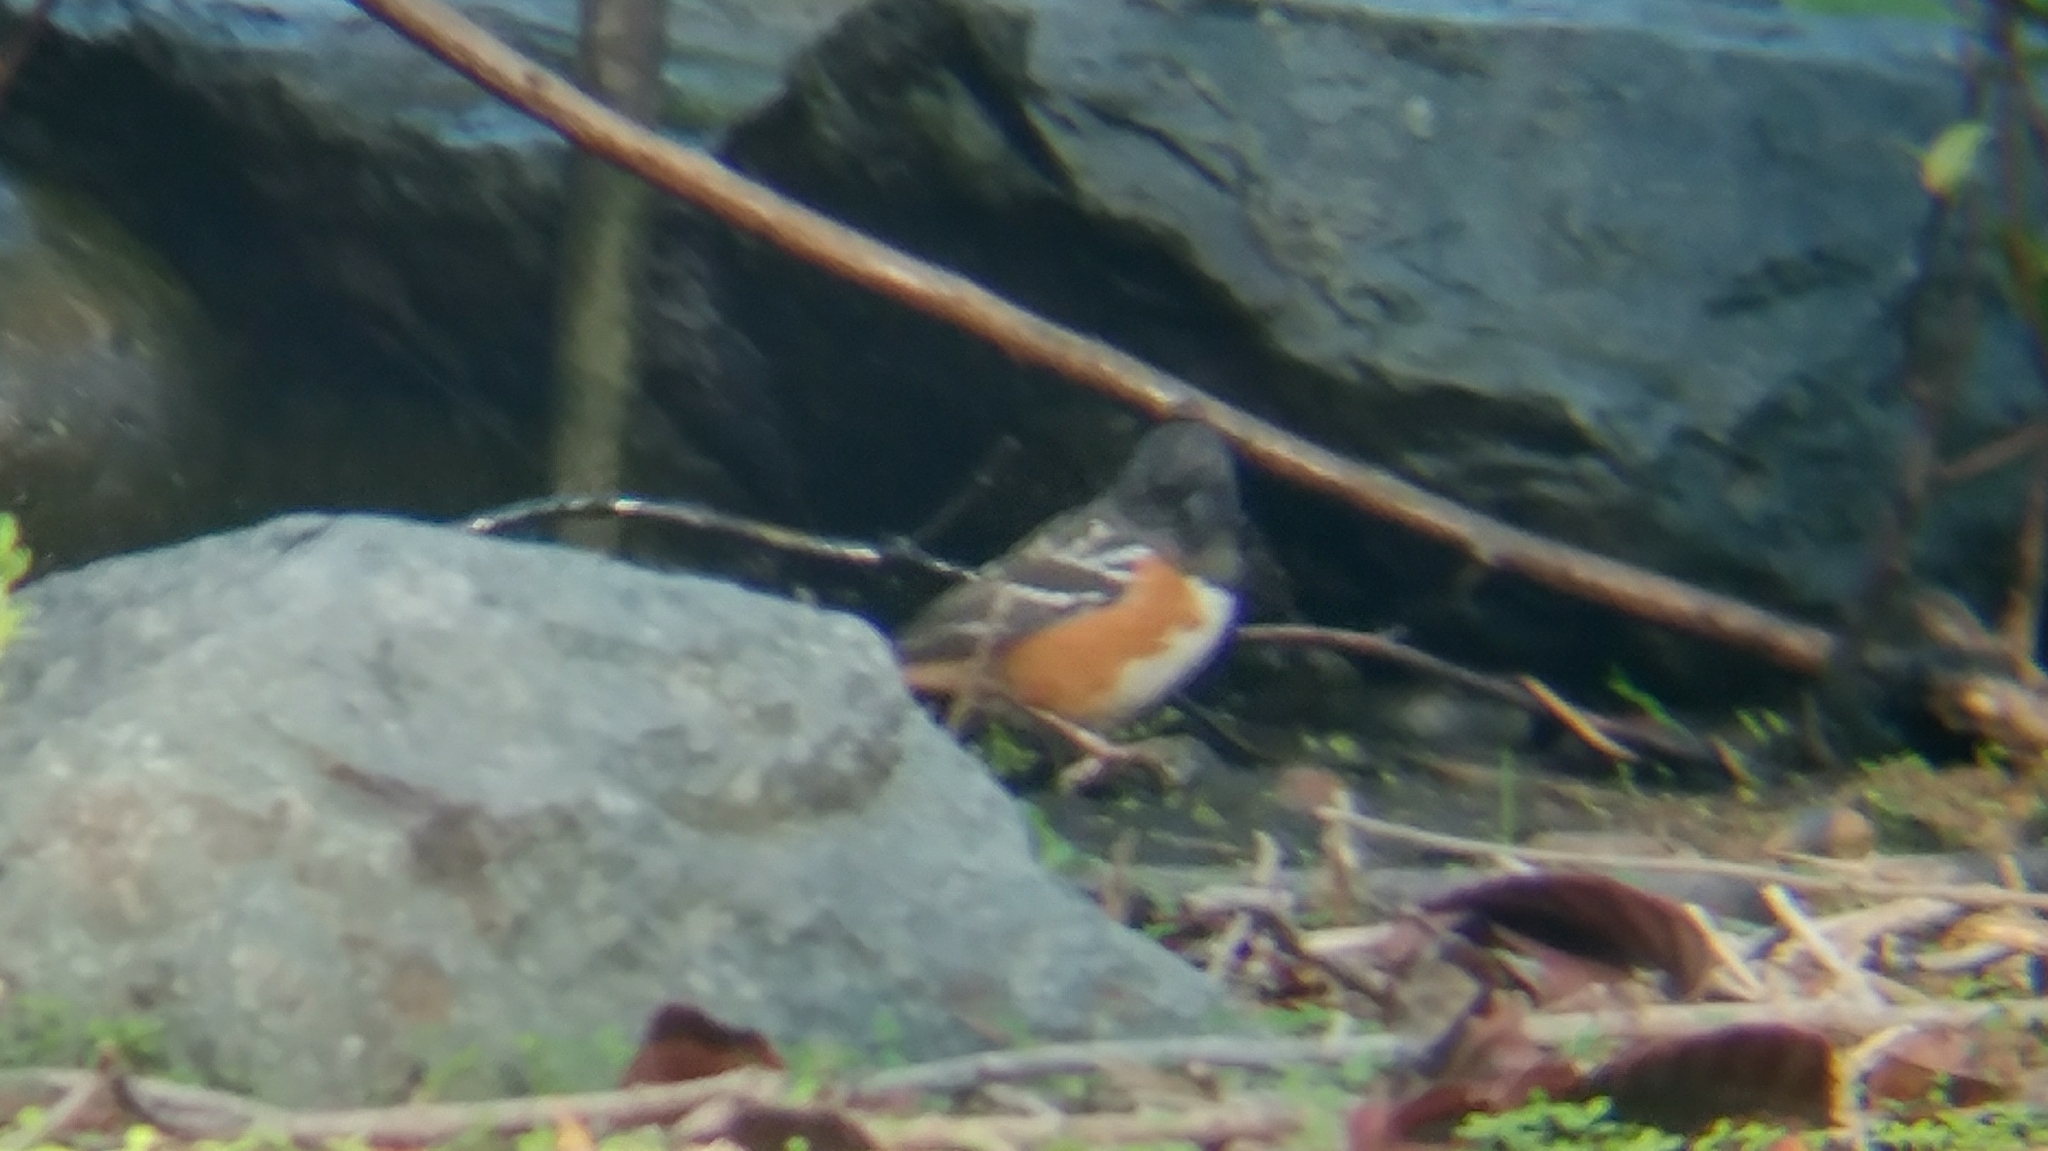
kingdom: Animalia
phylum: Chordata
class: Aves
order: Passeriformes
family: Passerellidae
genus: Pipilo
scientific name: Pipilo maculatus
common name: Spotted towhee
